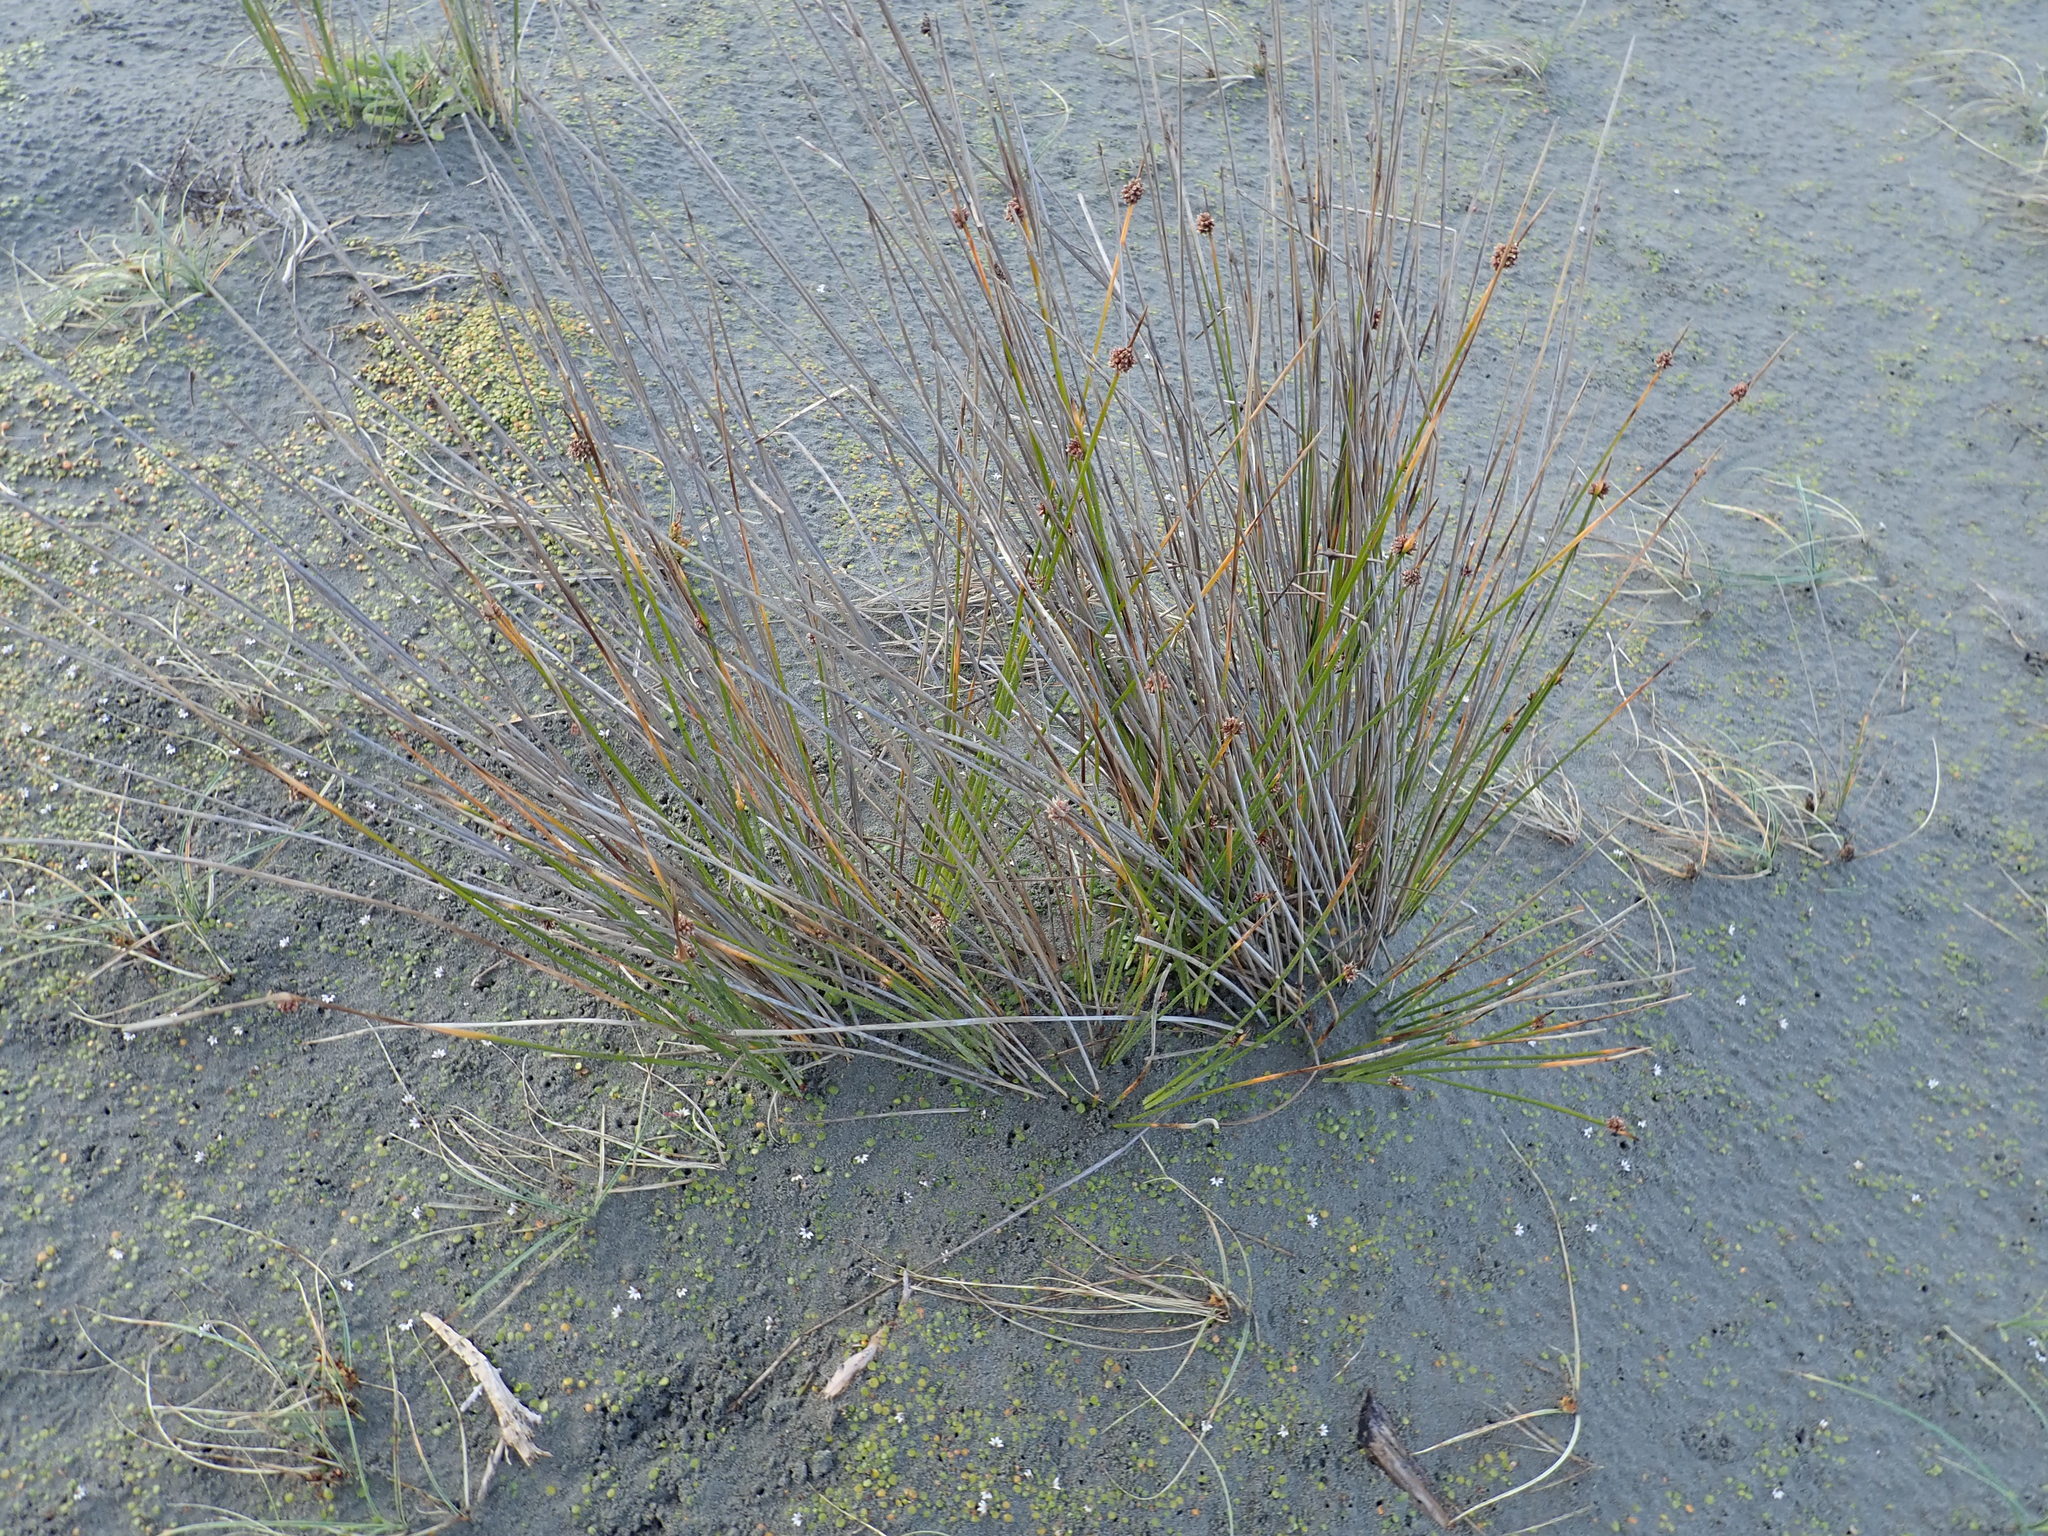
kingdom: Plantae
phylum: Tracheophyta
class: Liliopsida
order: Poales
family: Cyperaceae
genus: Ficinia
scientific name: Ficinia nodosa
